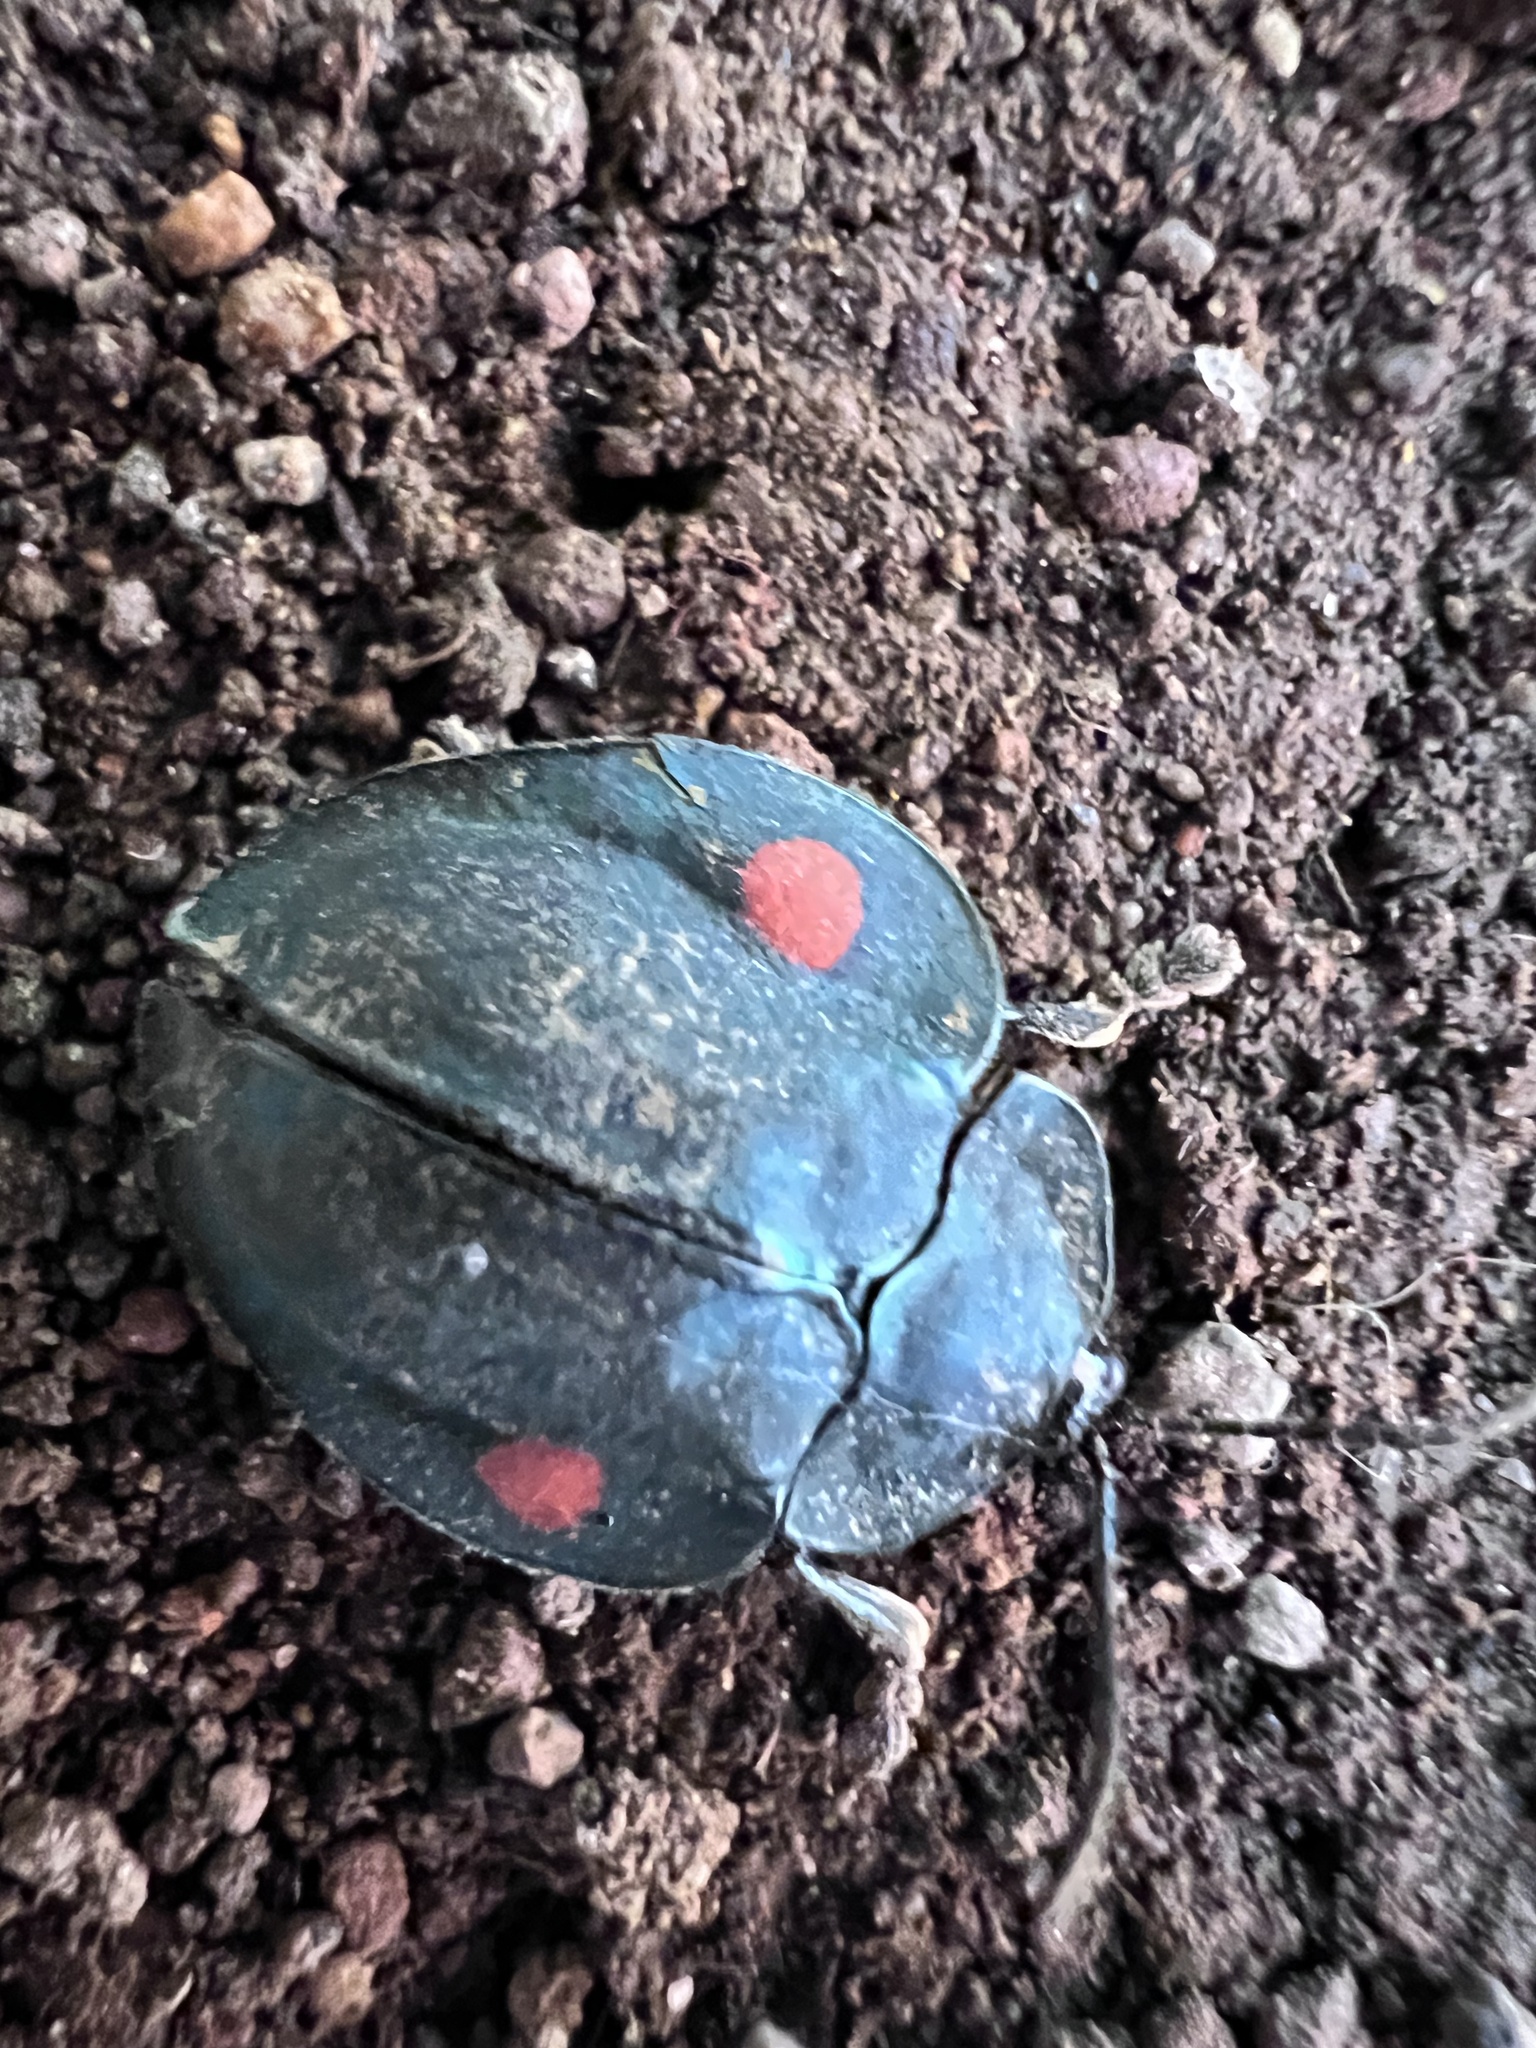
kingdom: Animalia
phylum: Arthropoda
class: Insecta
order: Coleoptera
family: Chrysomelidae
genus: Stolas
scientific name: Stolas
